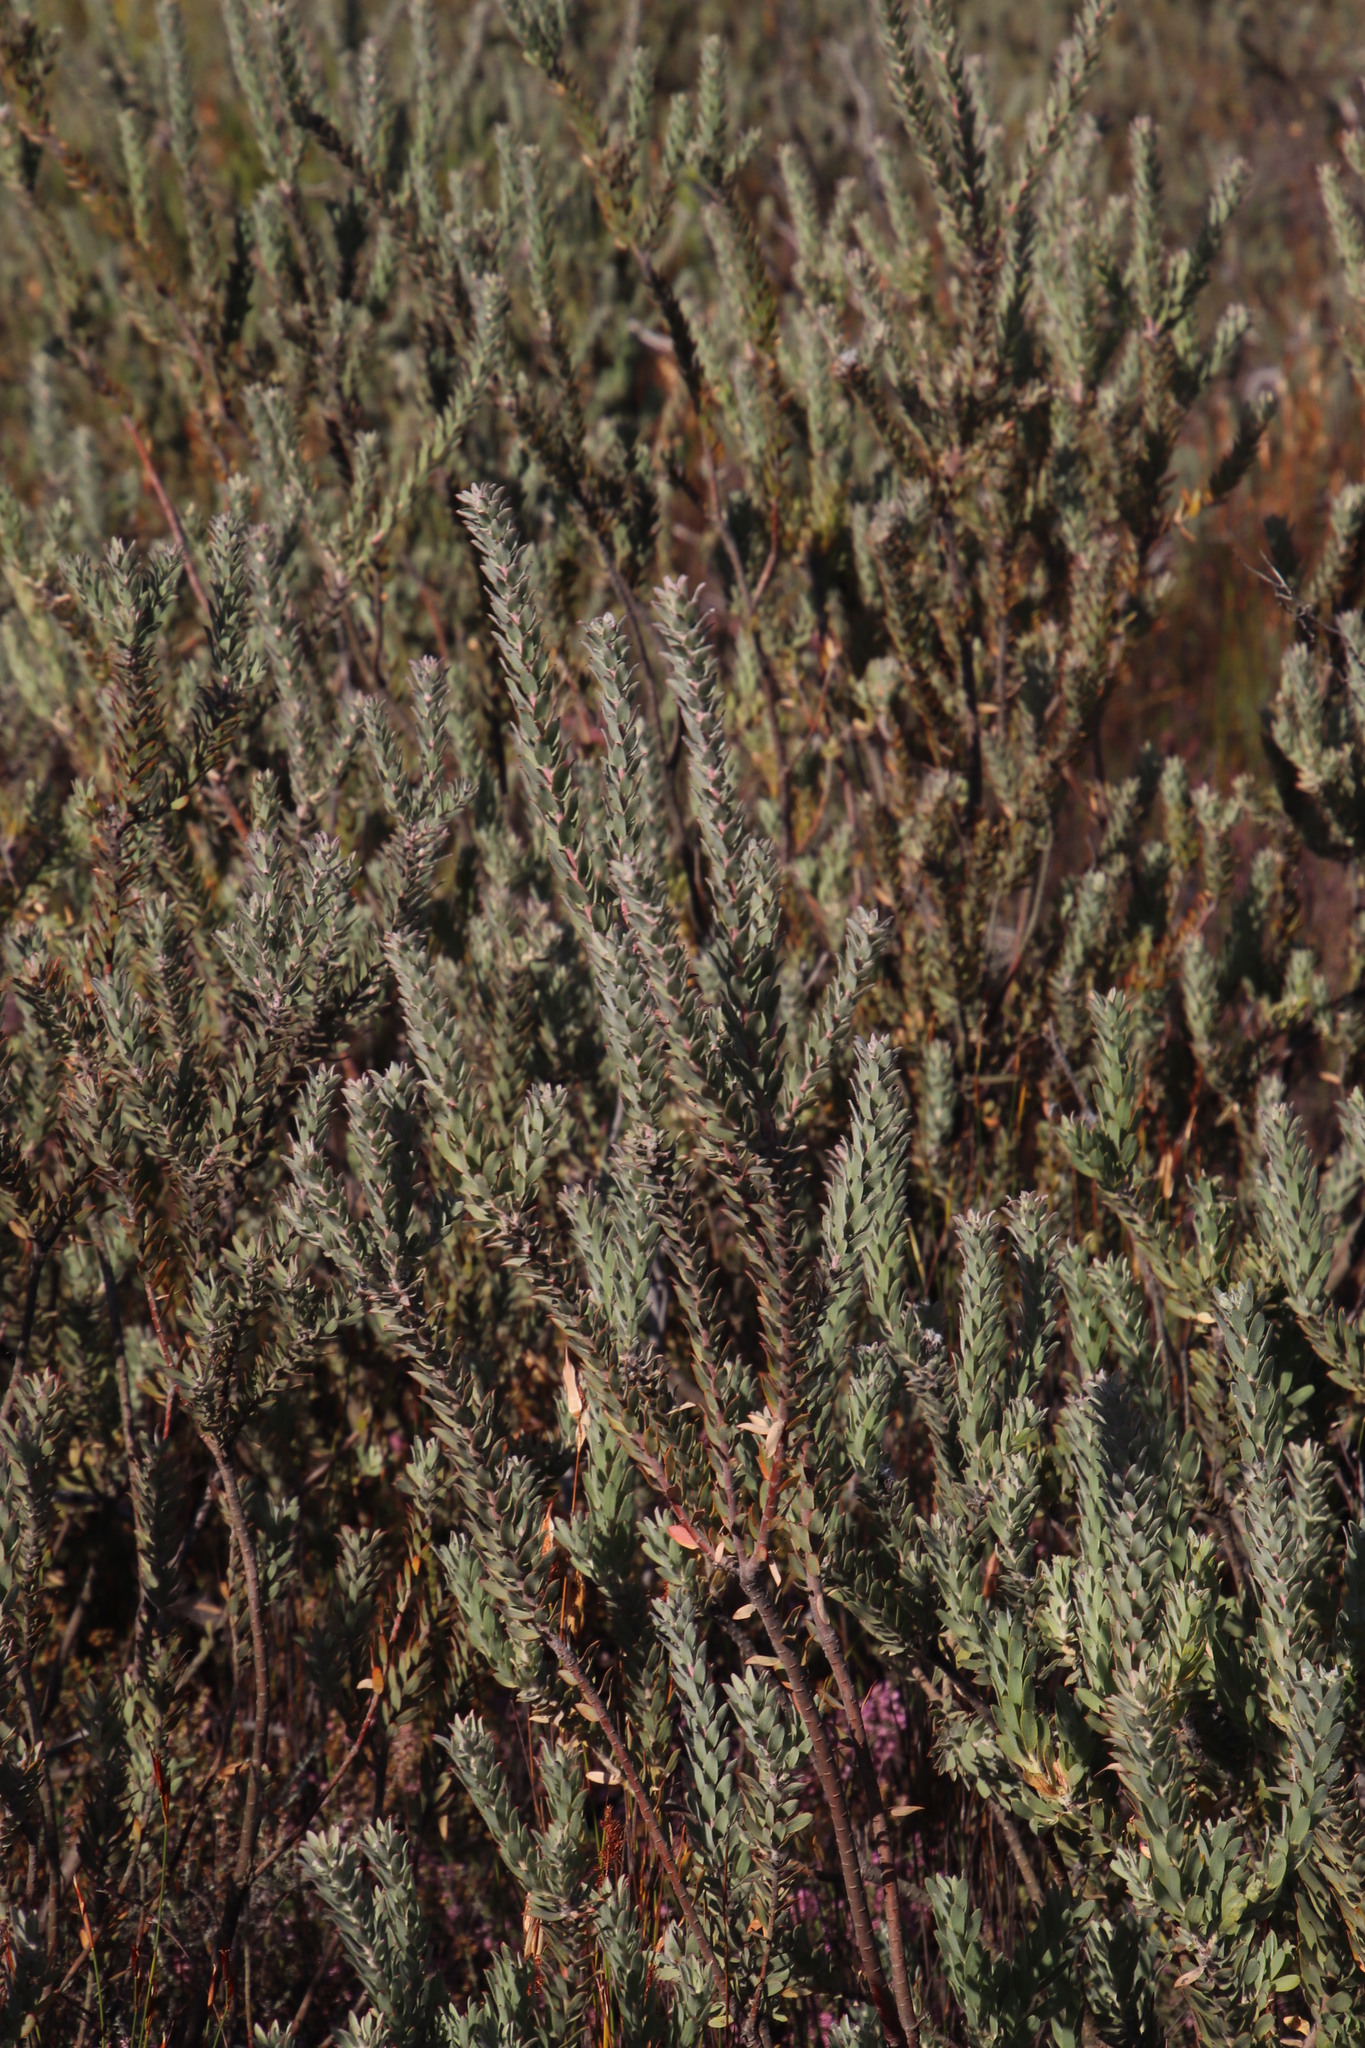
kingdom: Plantae
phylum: Tracheophyta
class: Magnoliopsida
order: Proteales
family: Proteaceae
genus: Leucospermum
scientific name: Leucospermum calligerum
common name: Arid pincushion
